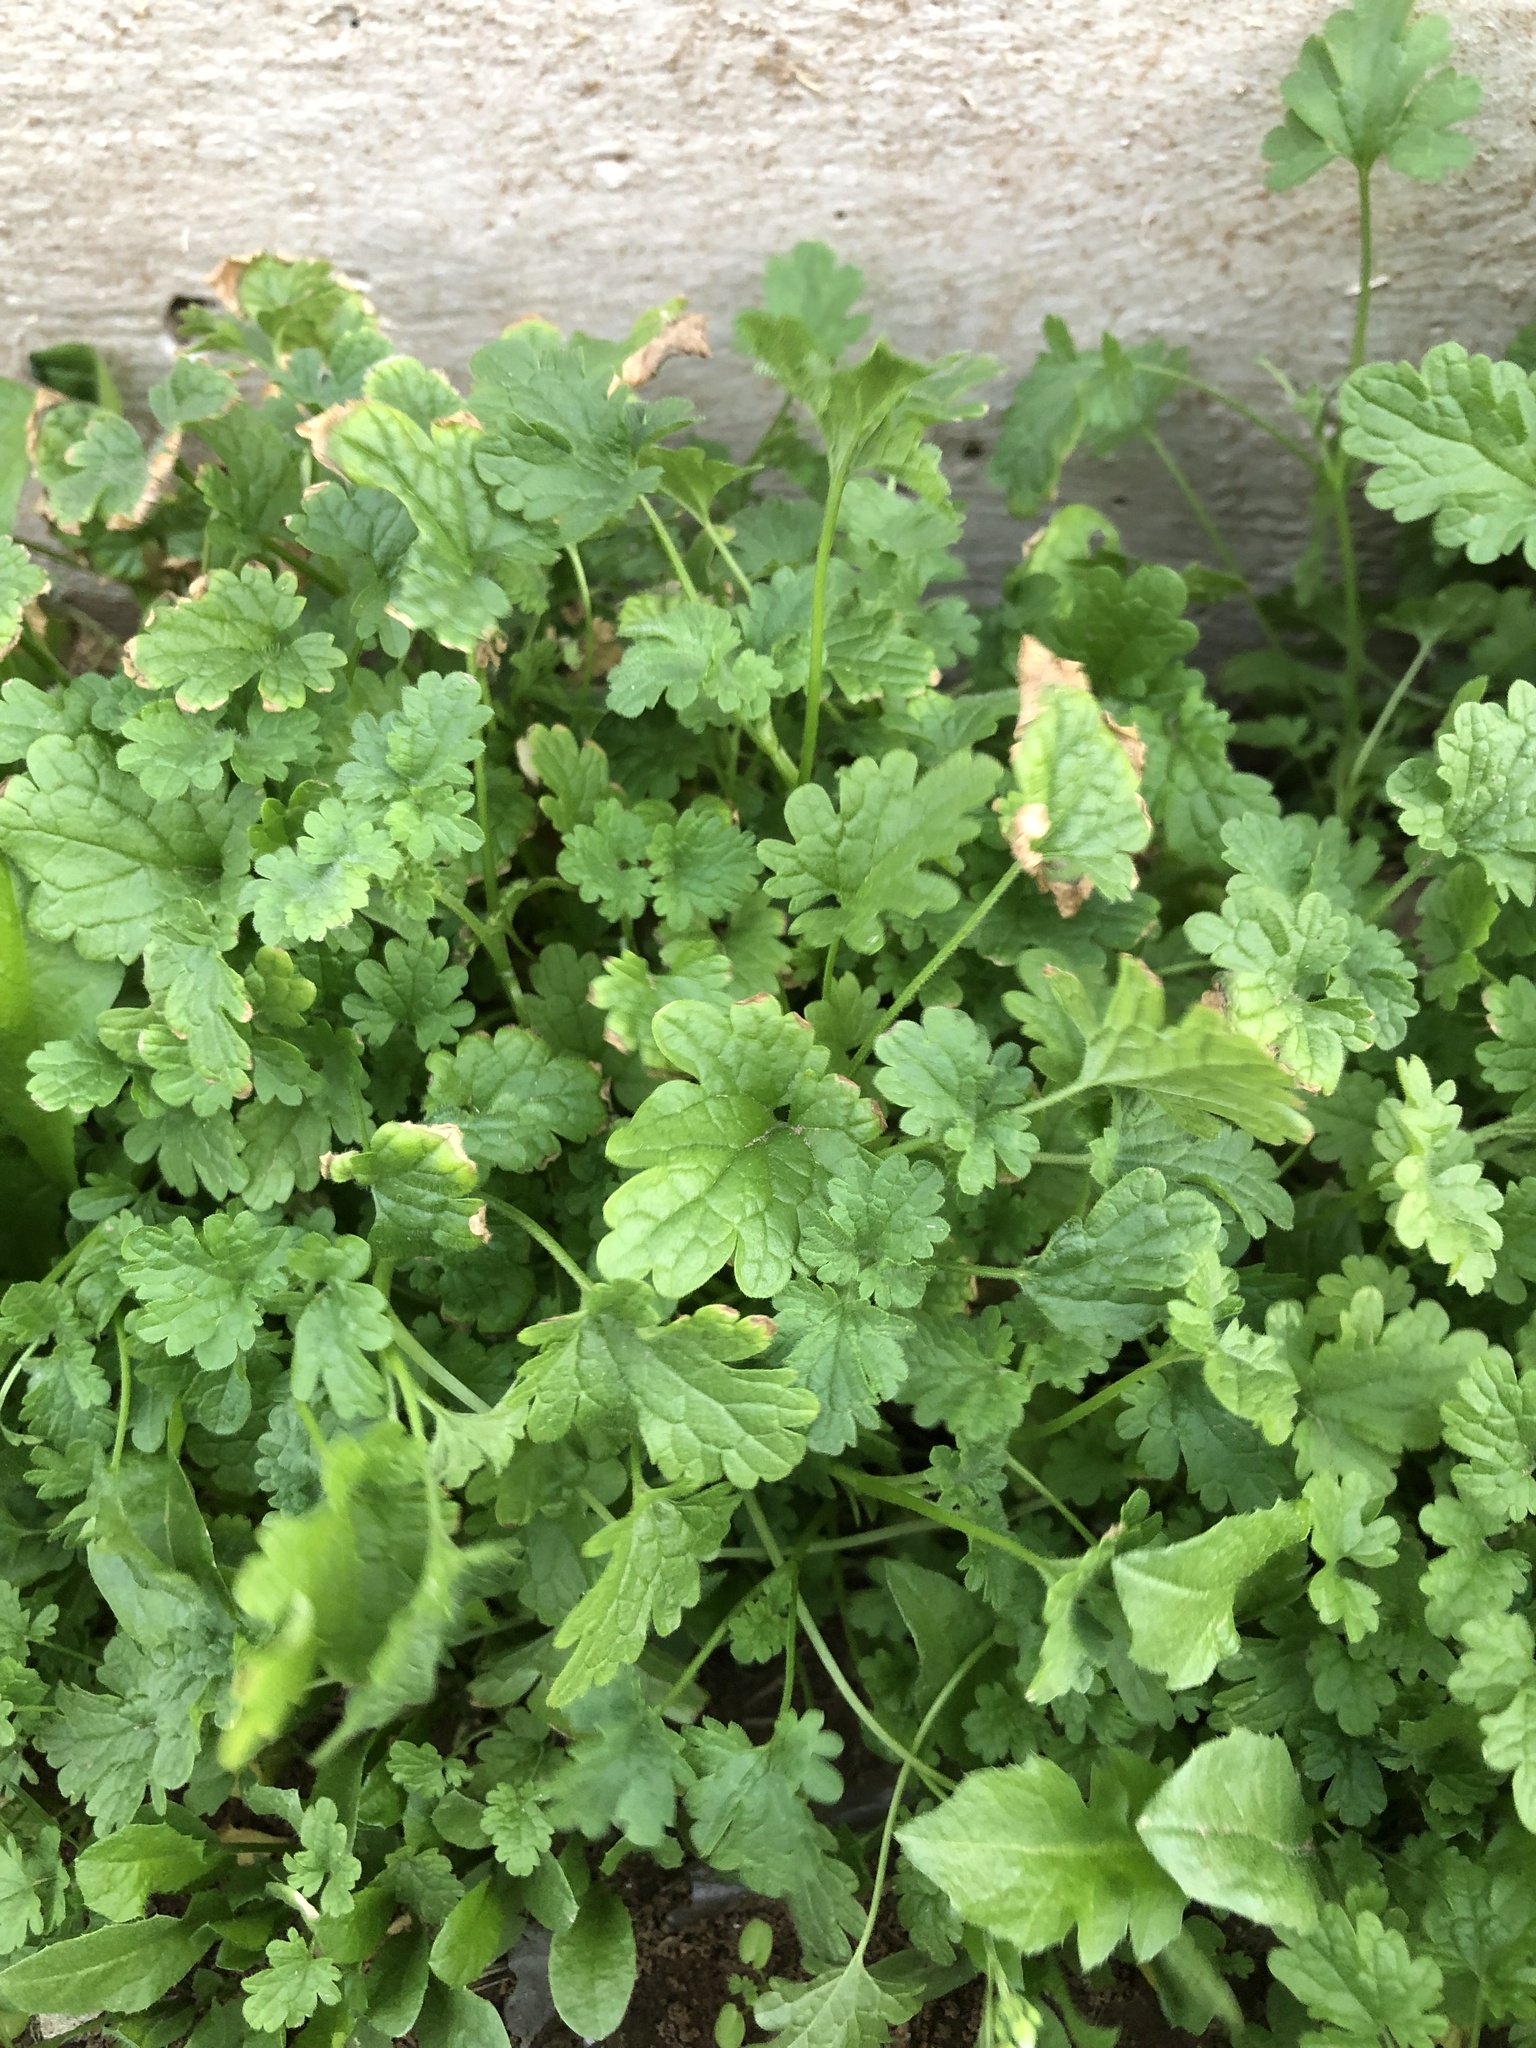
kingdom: Plantae
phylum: Tracheophyta
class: Magnoliopsida
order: Lamiales
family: Lamiaceae
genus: Lamium
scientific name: Lamium amplexicaule
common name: Henbit dead-nettle
